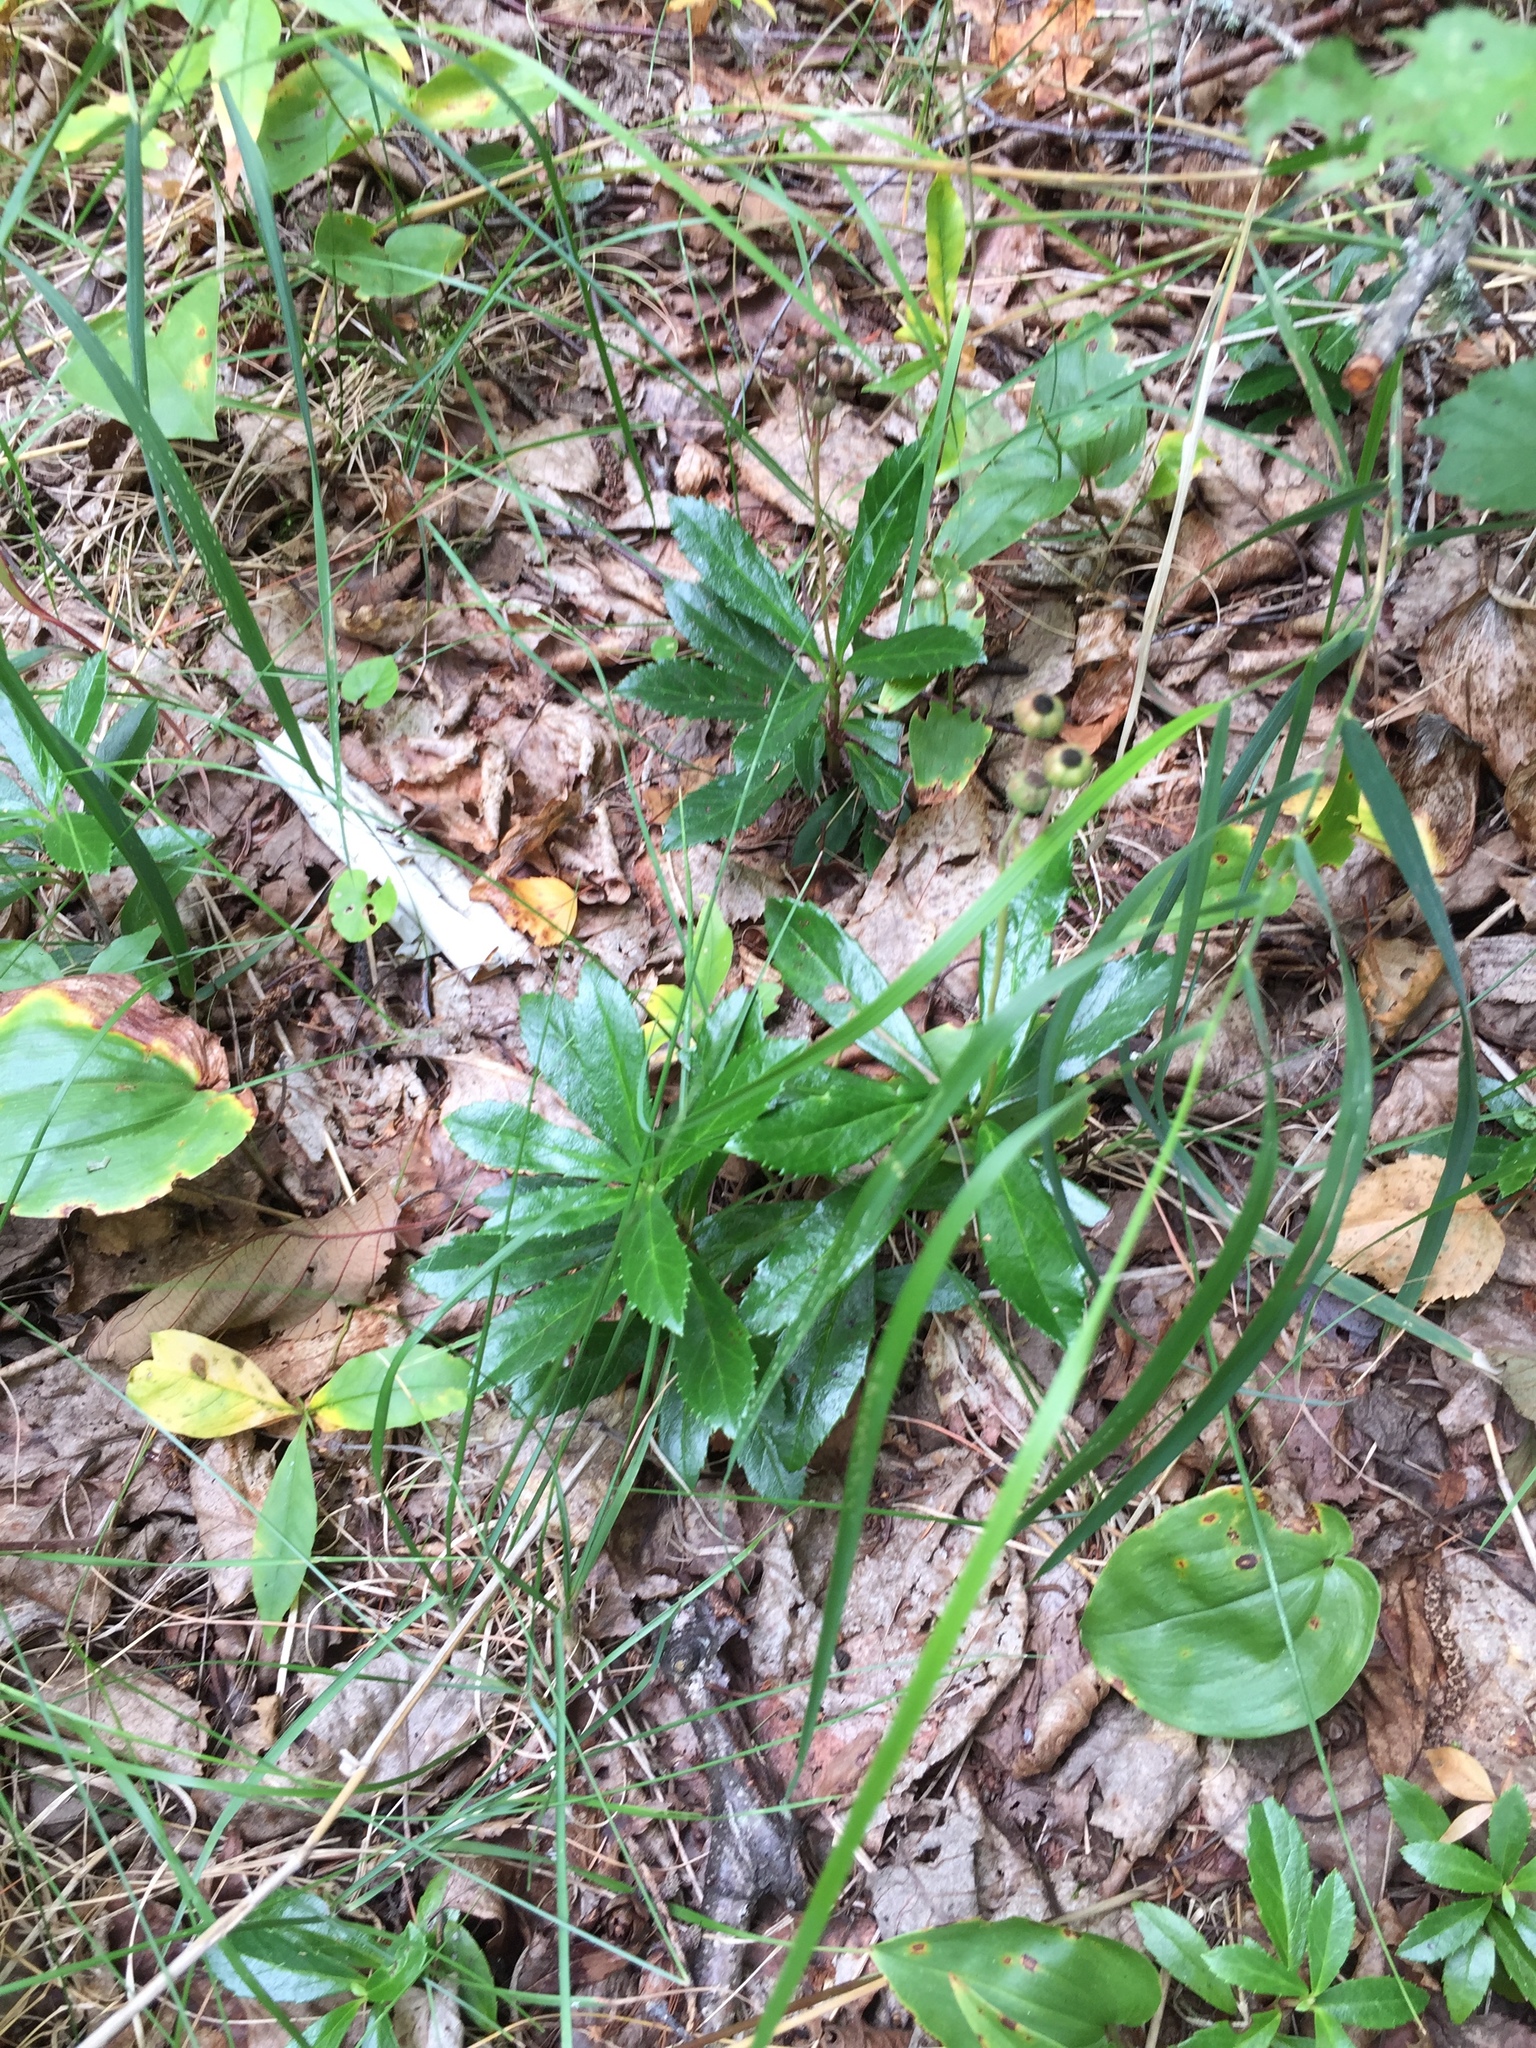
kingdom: Plantae
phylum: Tracheophyta
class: Magnoliopsida
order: Ericales
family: Ericaceae
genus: Chimaphila
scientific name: Chimaphila umbellata
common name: Pipsissewa
